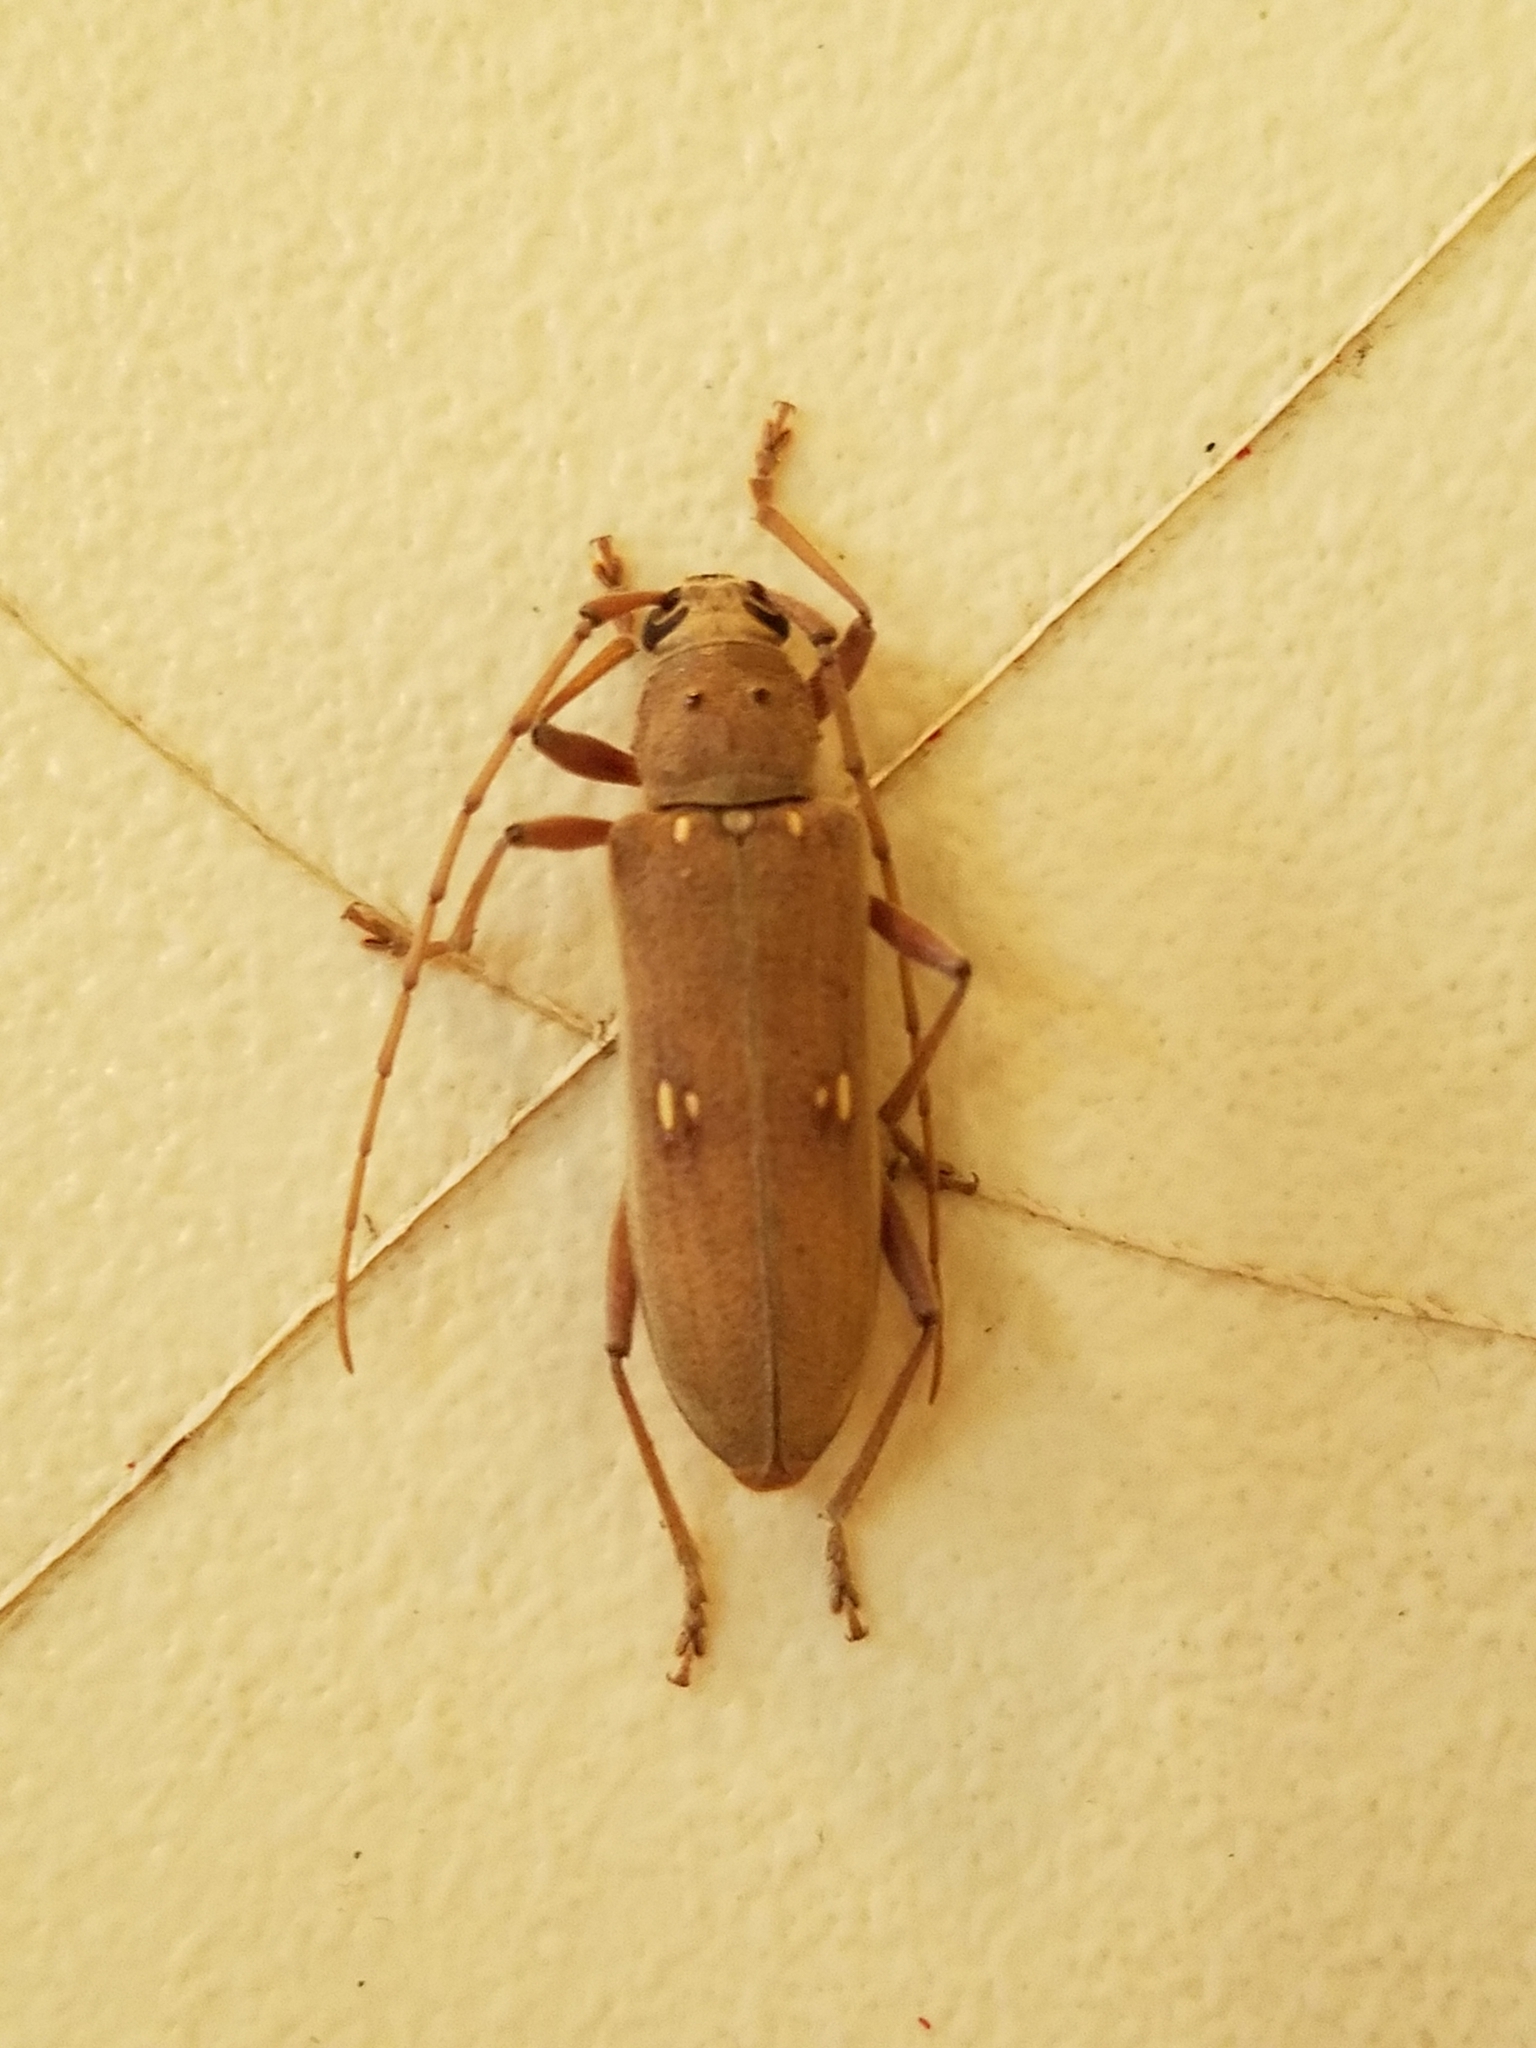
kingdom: Animalia
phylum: Arthropoda
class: Insecta
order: Coleoptera
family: Cerambycidae
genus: Eburia
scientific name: Eburia mutica
